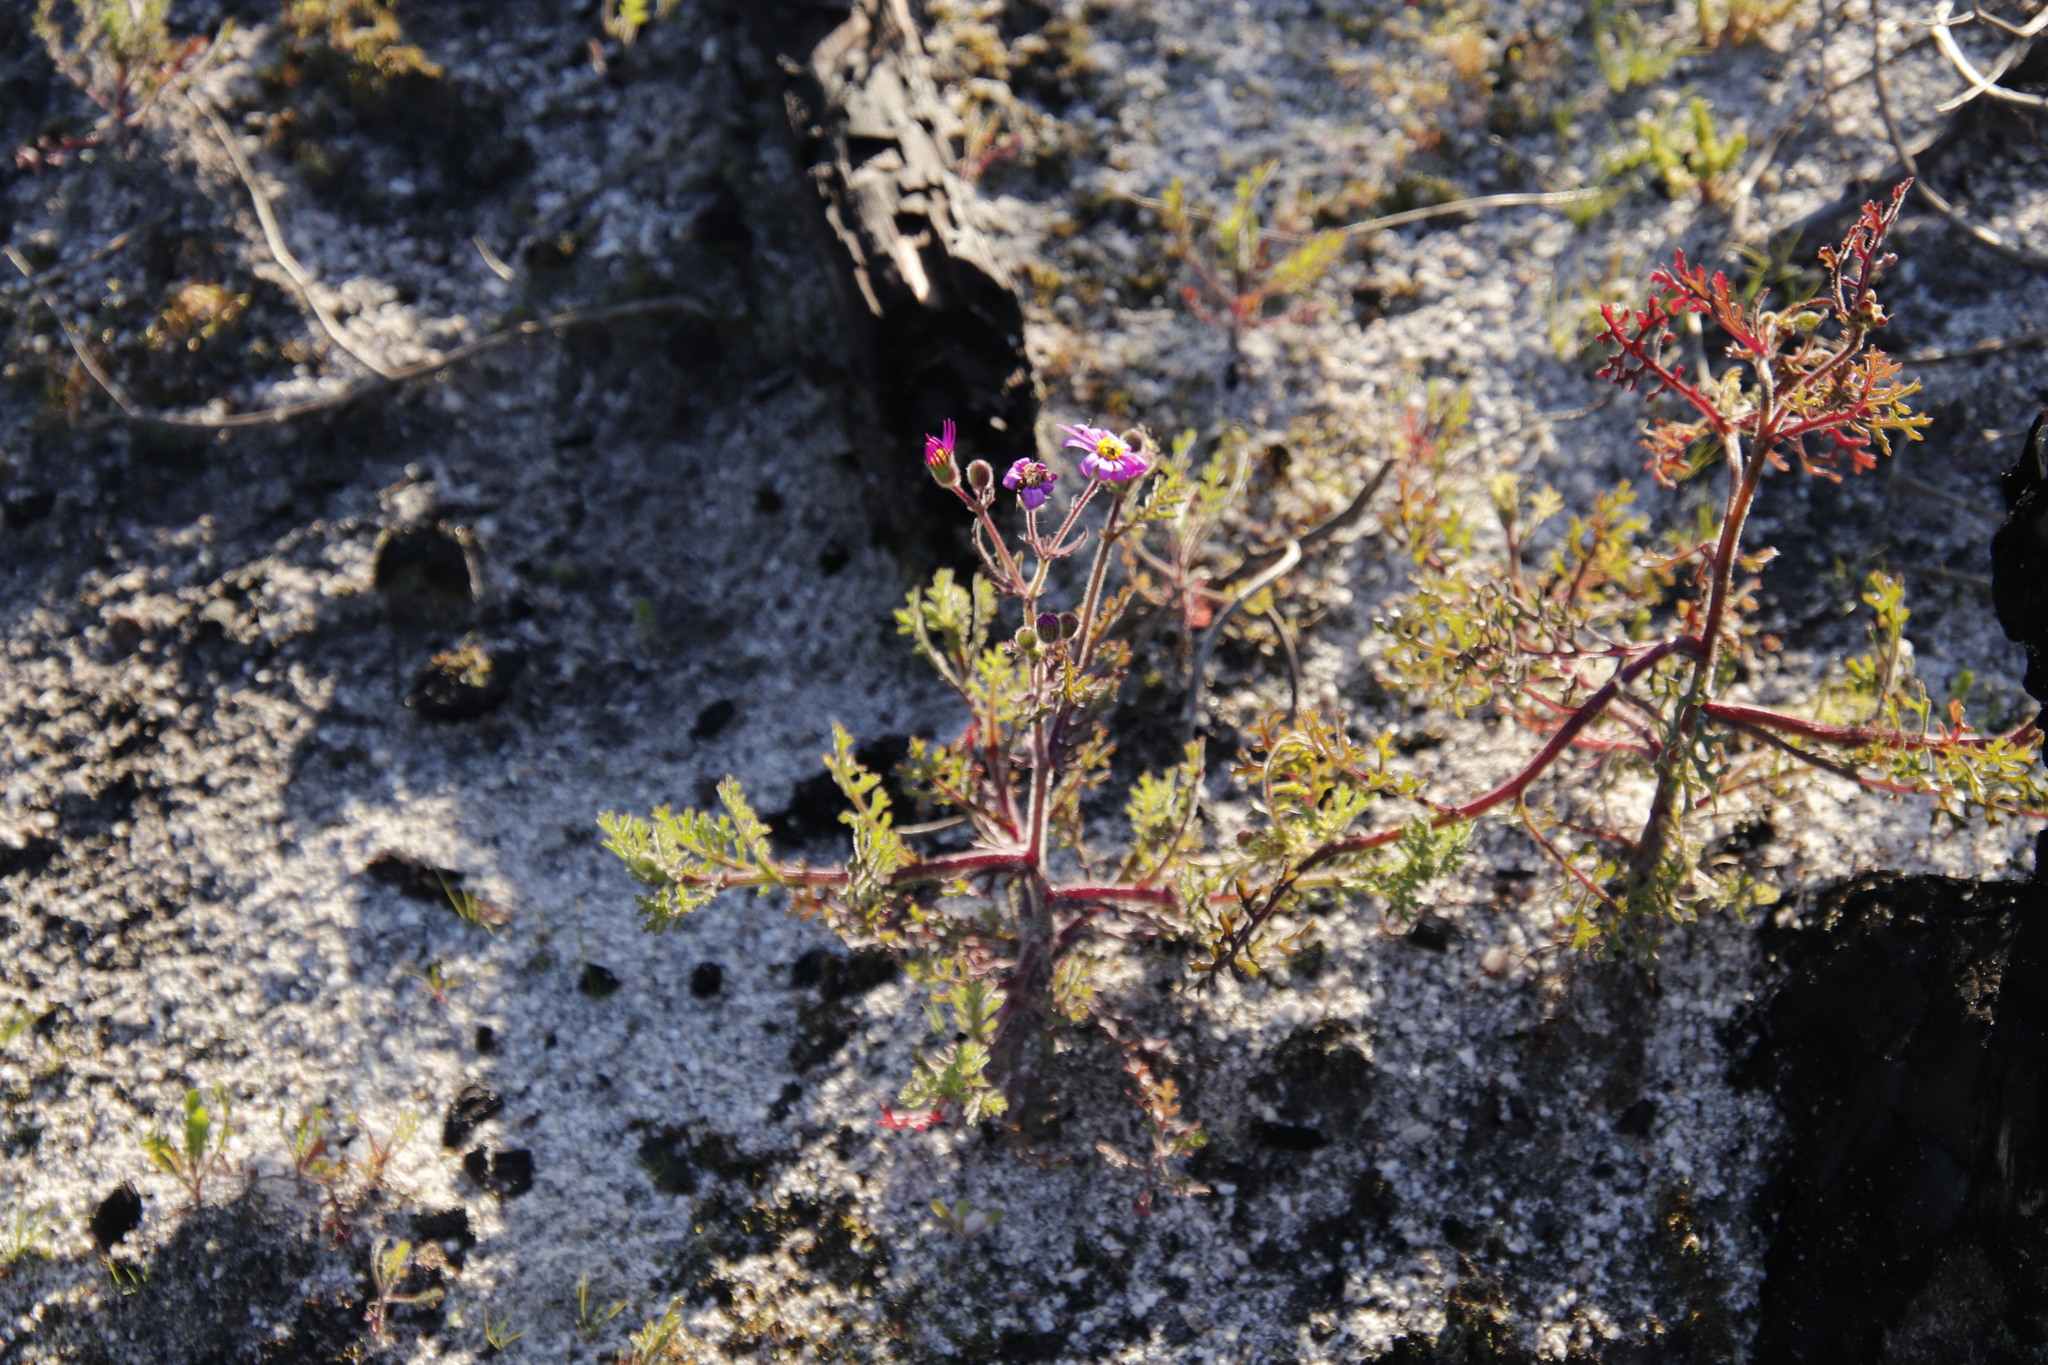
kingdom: Plantae
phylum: Tracheophyta
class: Magnoliopsida
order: Asterales
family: Asteraceae
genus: Senecio
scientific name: Senecio arenarius
